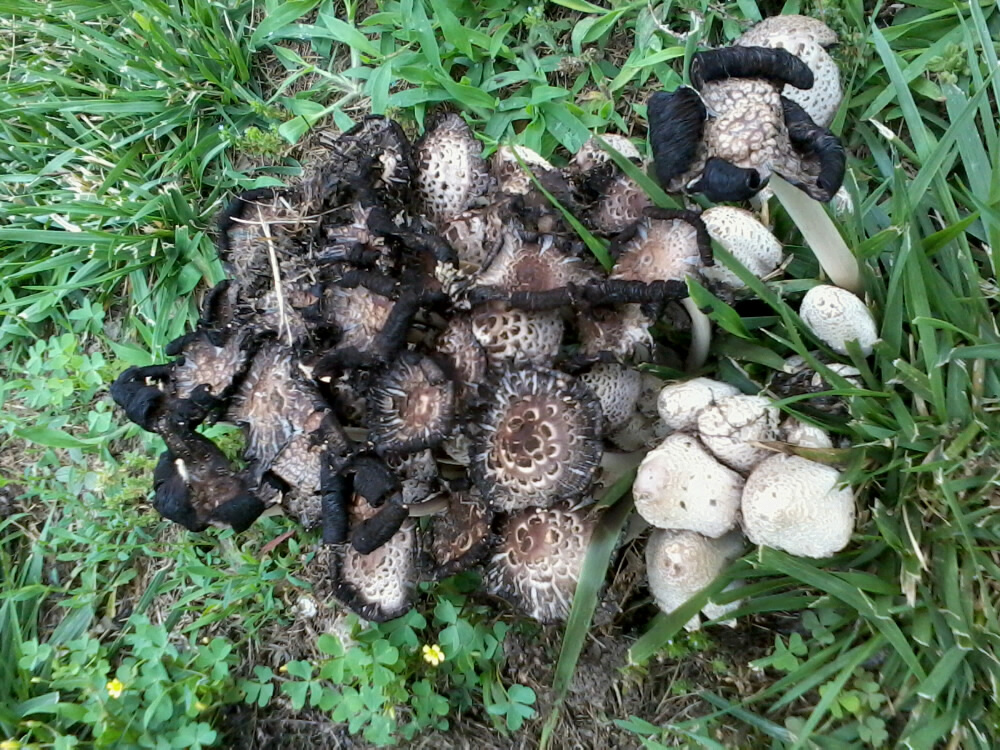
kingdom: Fungi
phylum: Basidiomycota
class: Agaricomycetes
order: Agaricales
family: Psathyrellaceae
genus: Coprinopsis
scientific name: Coprinopsis variegata
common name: Scaly ink cap
